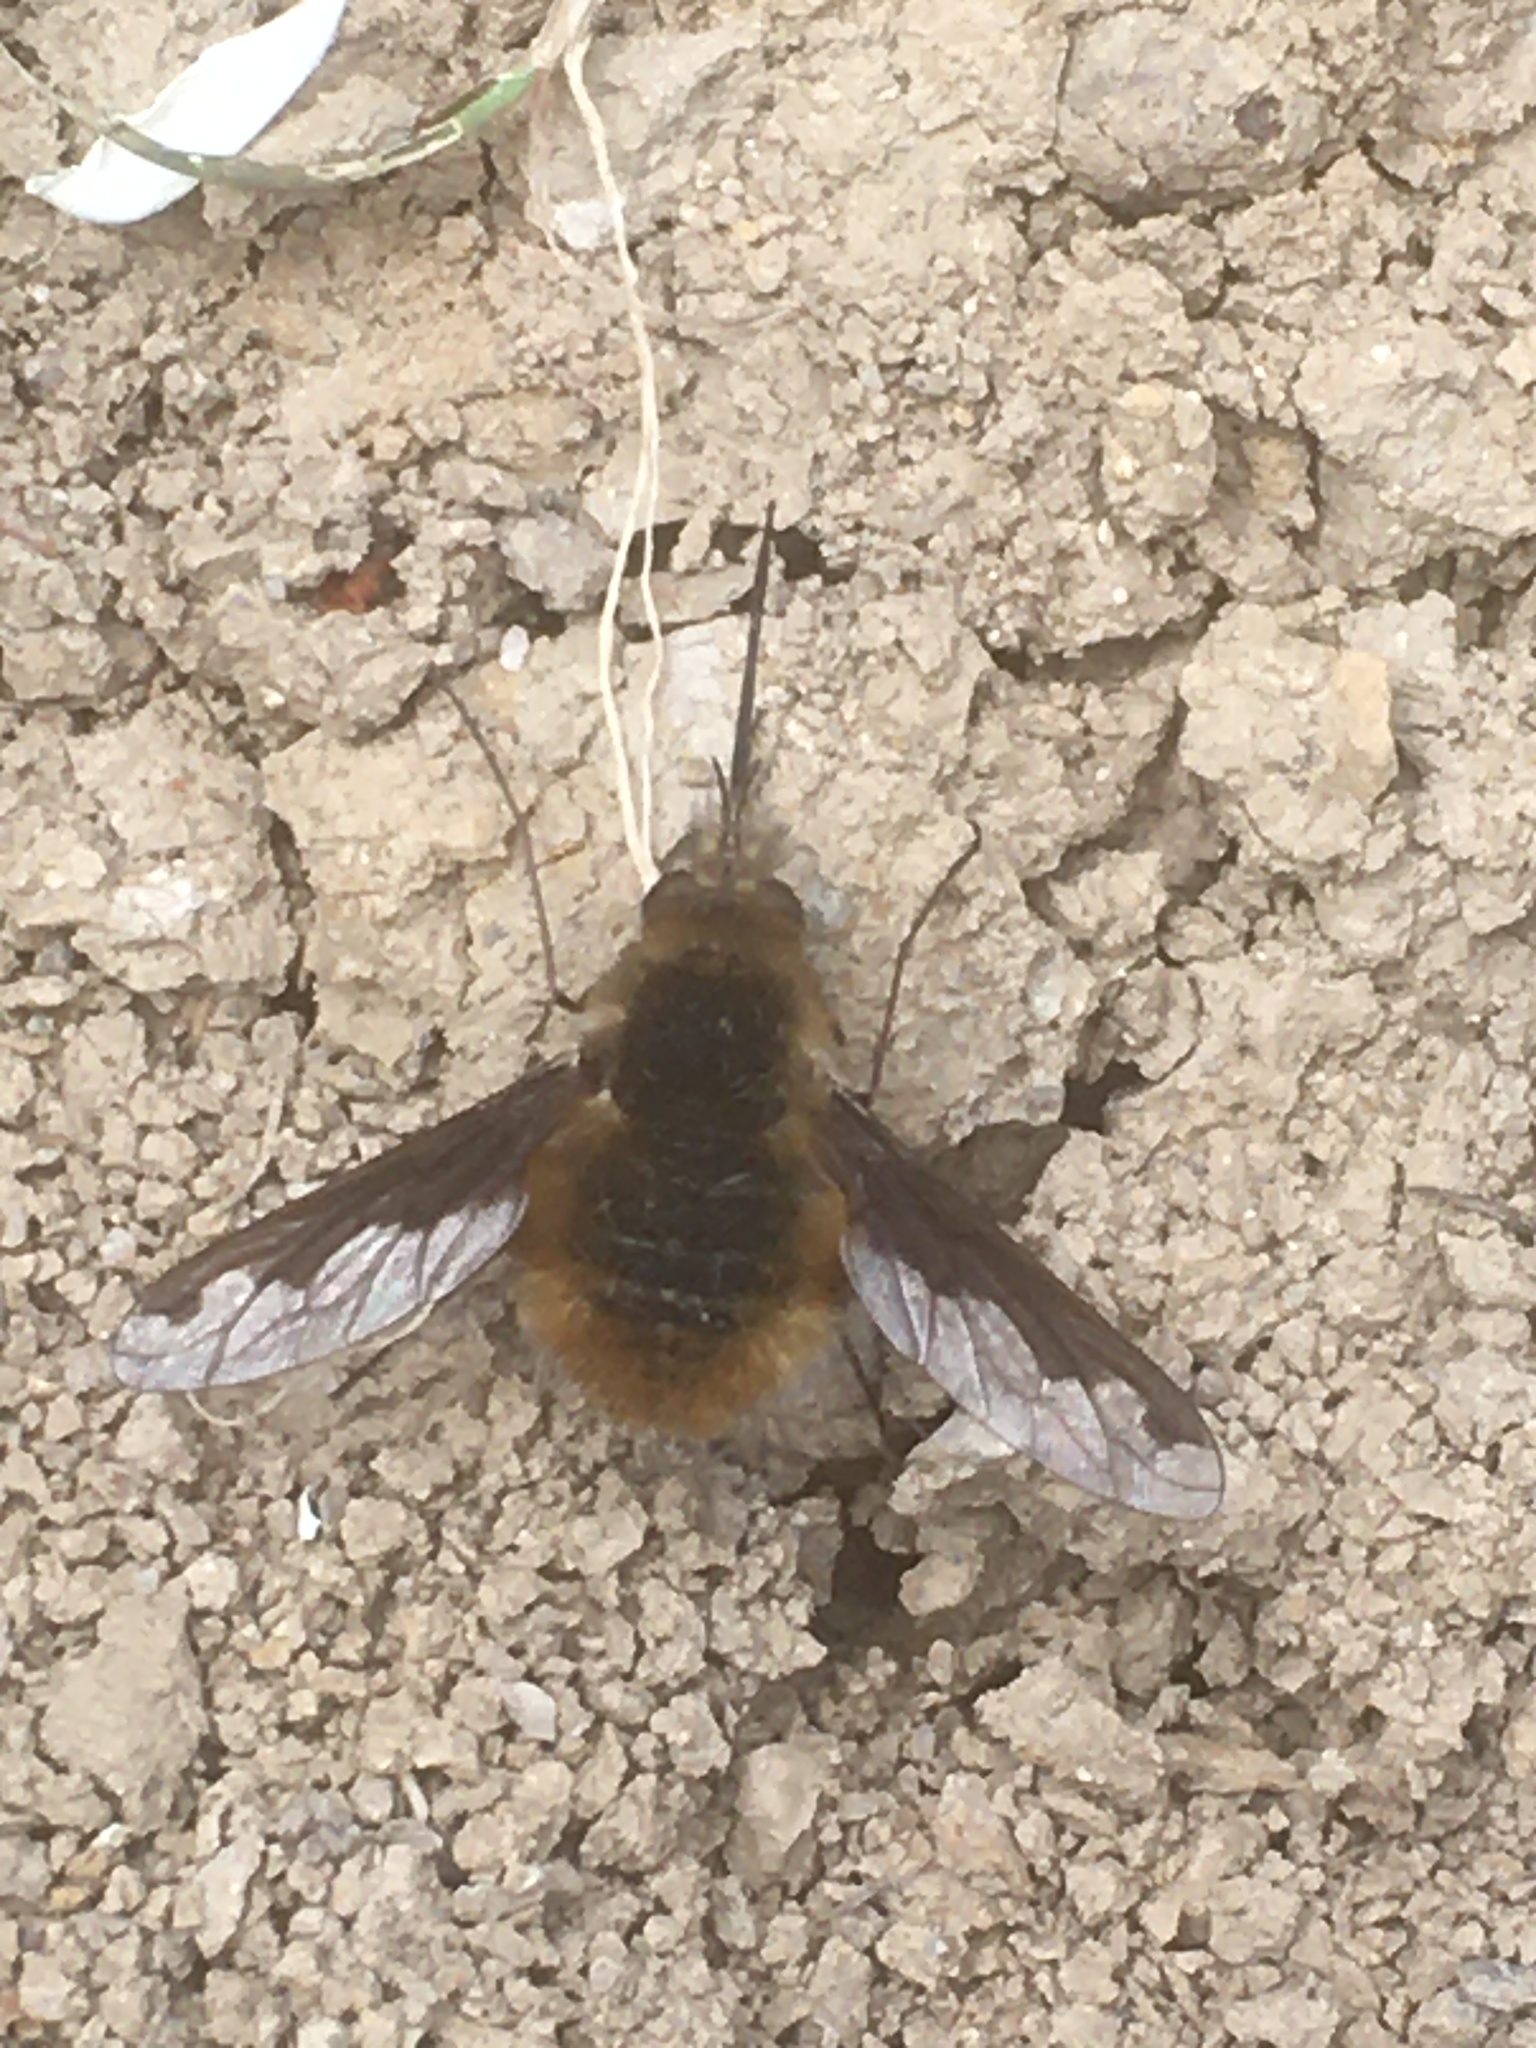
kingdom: Animalia
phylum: Arthropoda
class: Insecta
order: Diptera
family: Bombyliidae
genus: Bombylius
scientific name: Bombylius major
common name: Bee fly
